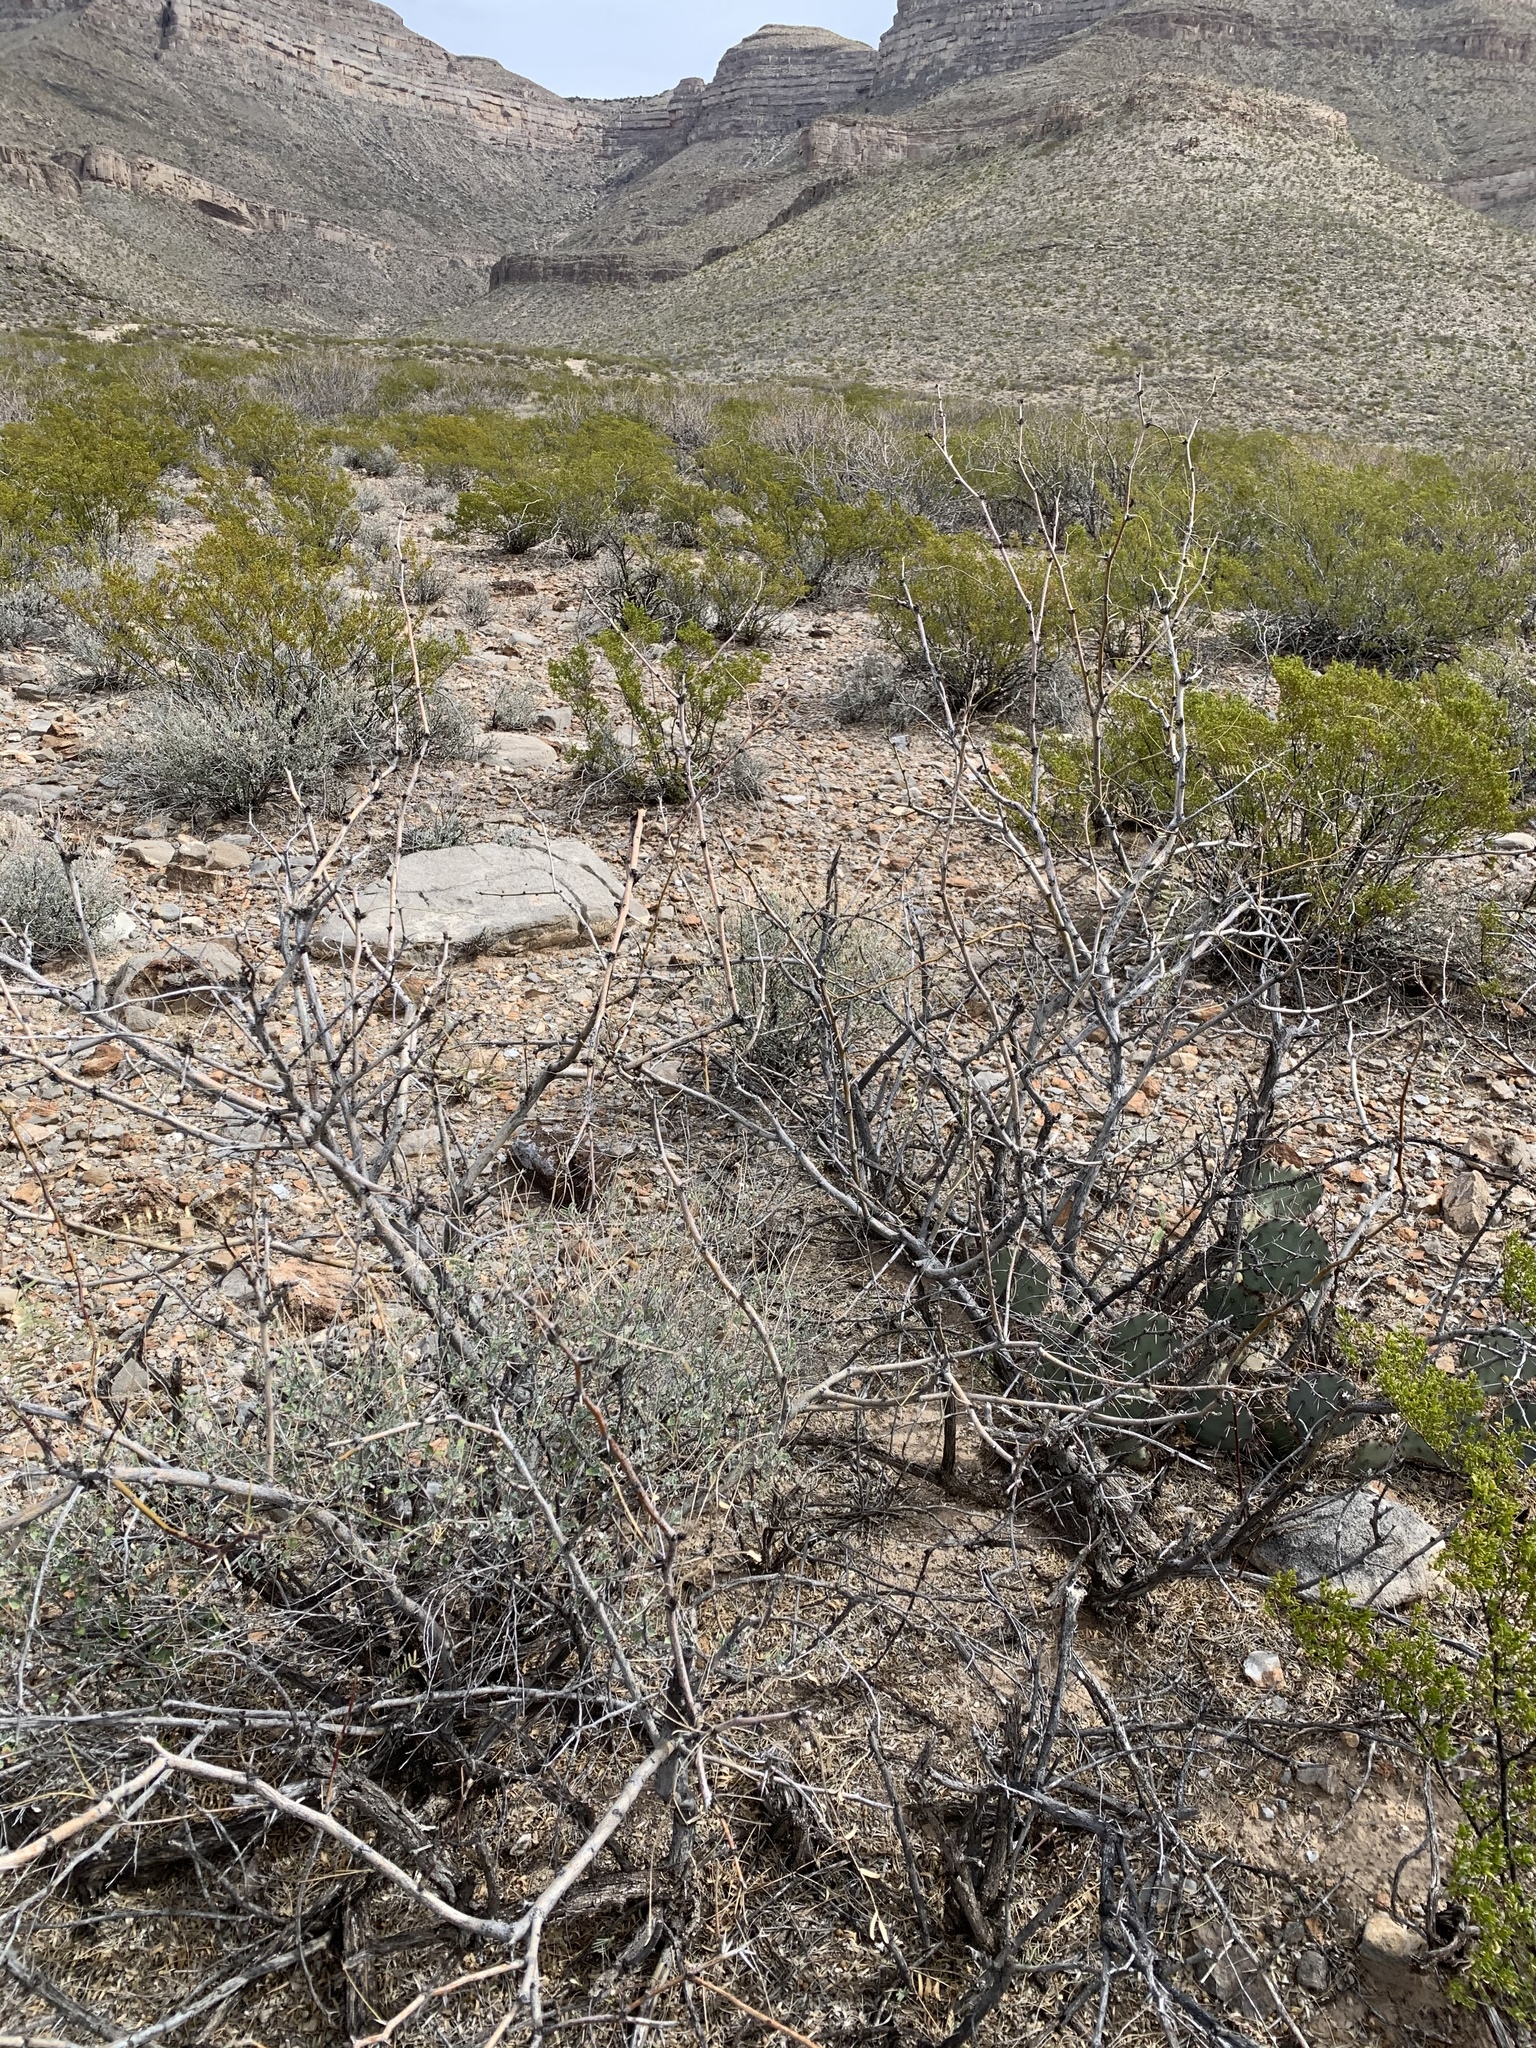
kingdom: Plantae
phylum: Tracheophyta
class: Magnoliopsida
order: Fabales
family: Fabaceae
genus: Prosopis
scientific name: Prosopis glandulosa
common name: Honey mesquite
